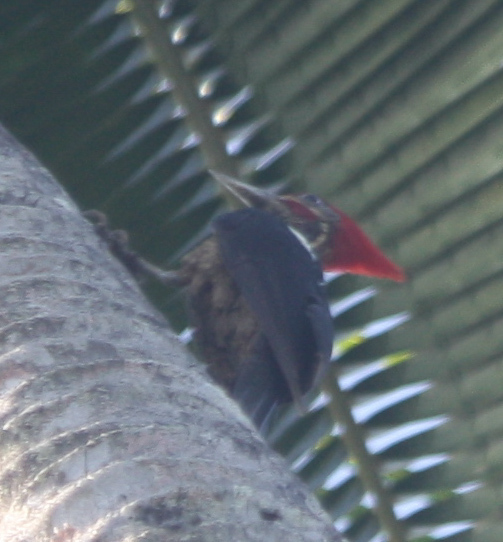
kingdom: Animalia
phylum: Chordata
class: Aves
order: Piciformes
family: Picidae
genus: Dryocopus
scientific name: Dryocopus lineatus
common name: Lineated woodpecker
